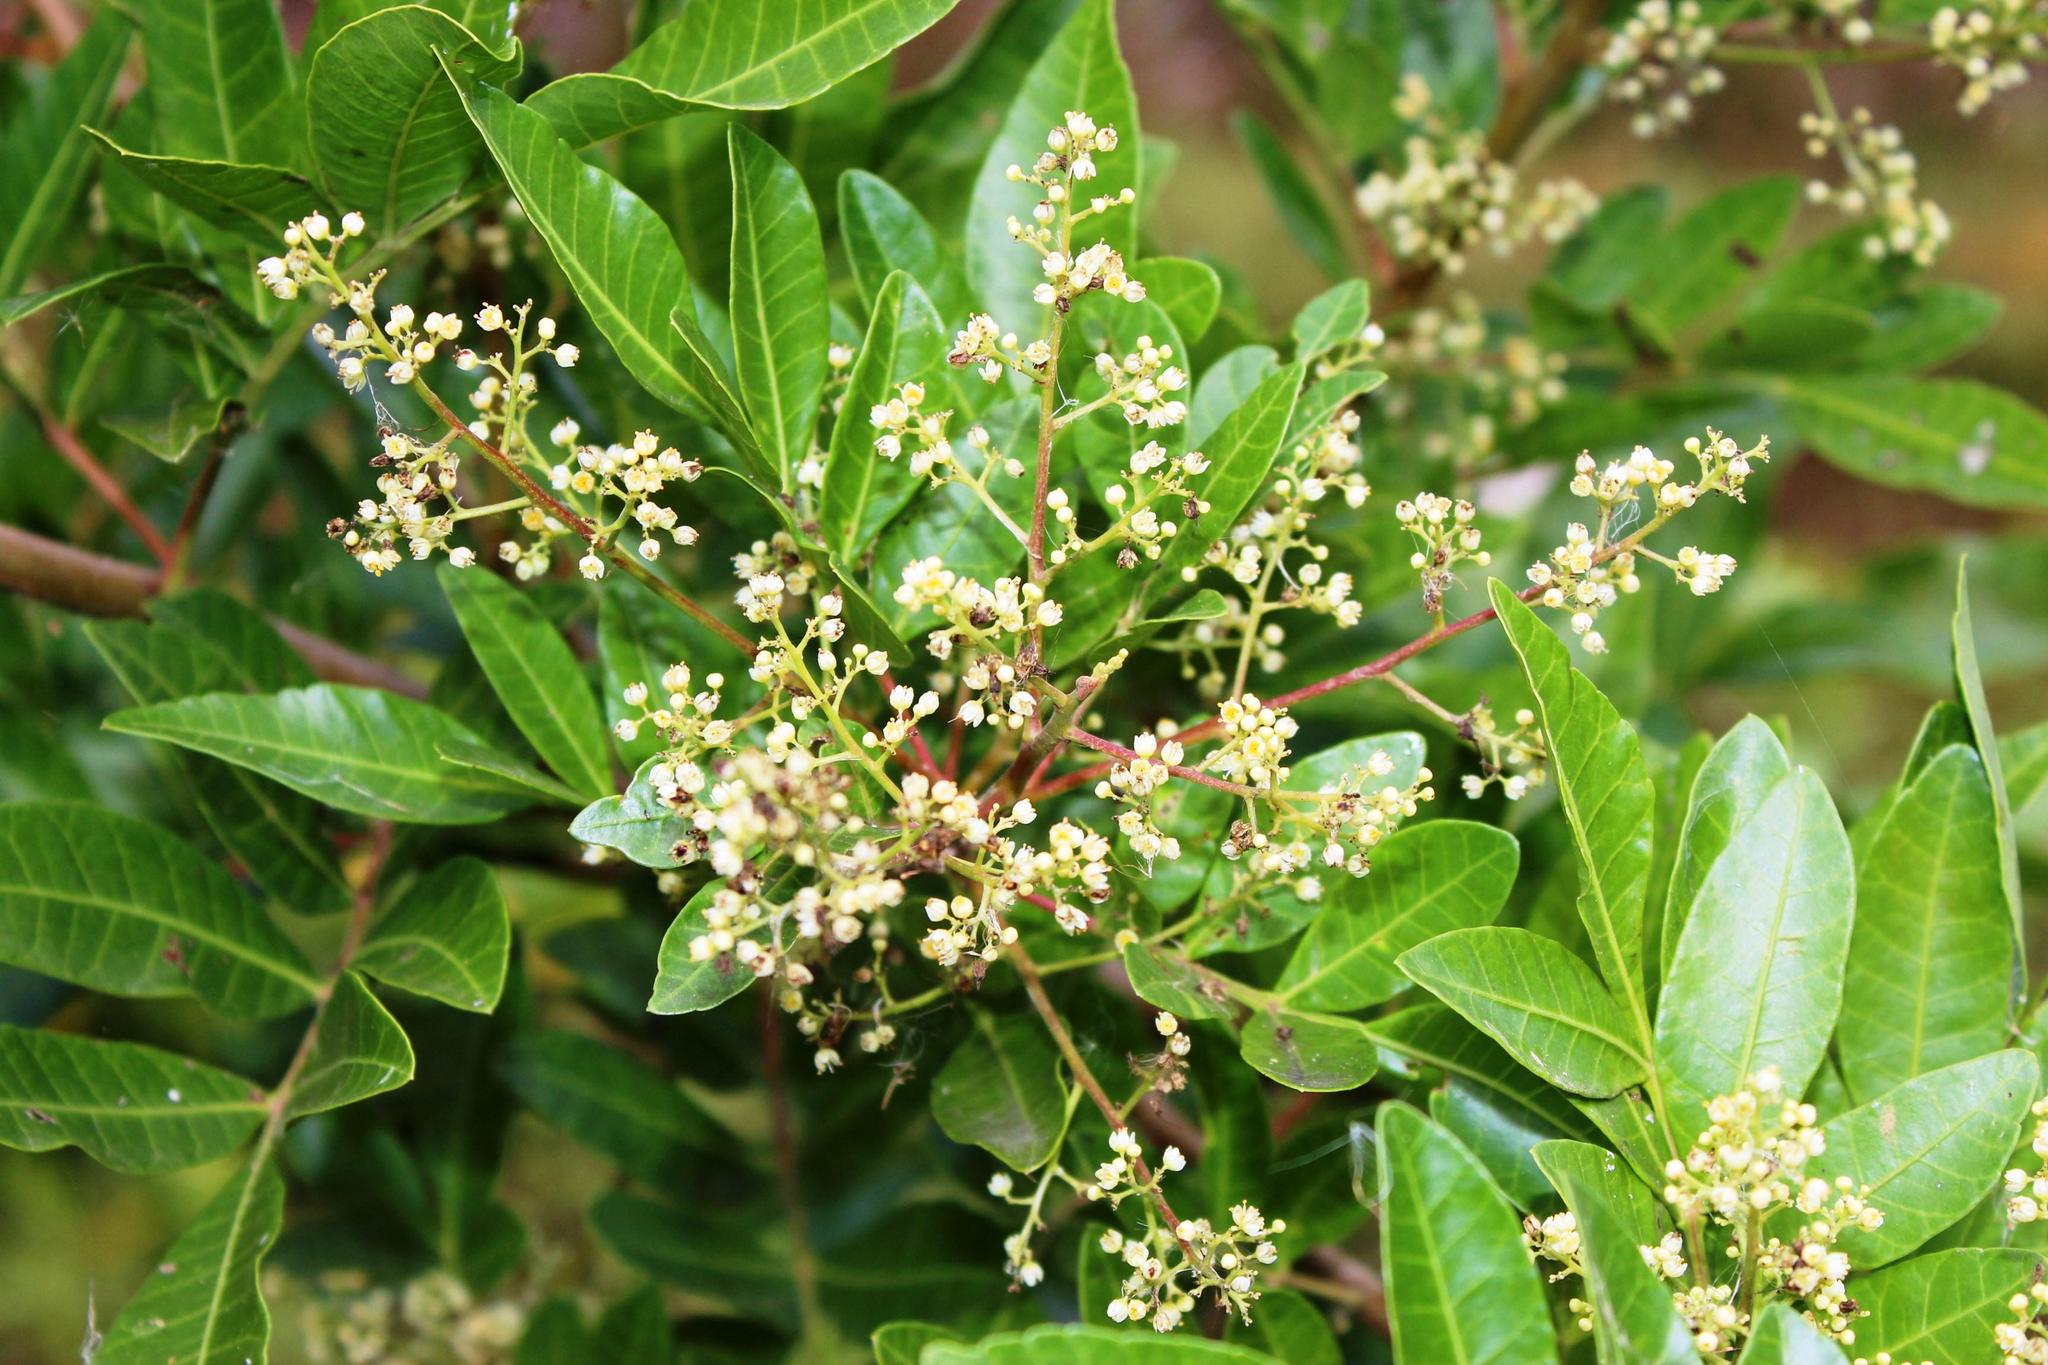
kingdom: Plantae
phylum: Tracheophyta
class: Magnoliopsida
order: Sapindales
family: Anacardiaceae
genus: Schinus
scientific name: Schinus terebinthifolia
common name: Brazilian peppertree
